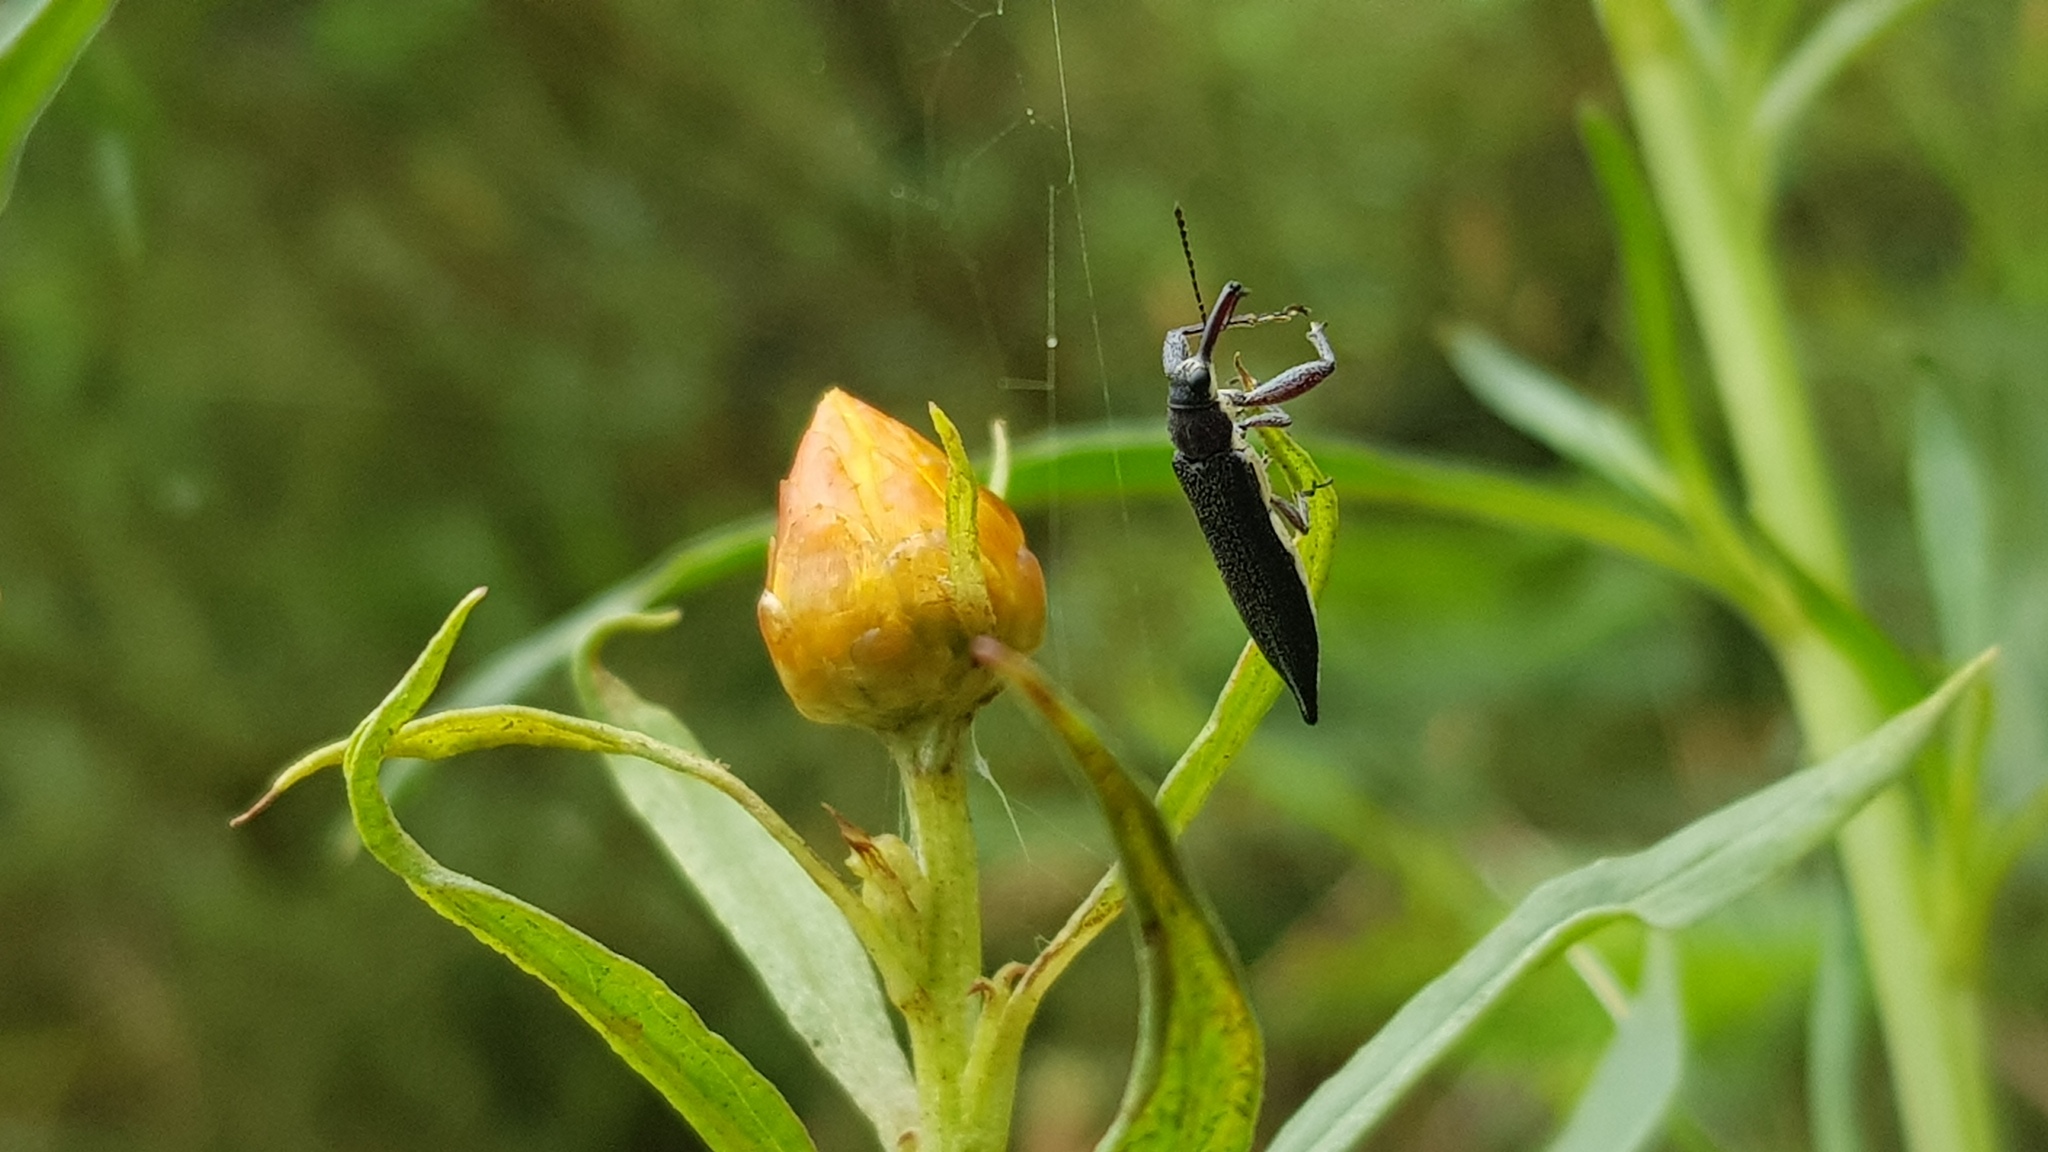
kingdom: Animalia
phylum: Arthropoda
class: Insecta
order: Coleoptera
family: Belidae
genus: Rhinotia
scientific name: Rhinotia
